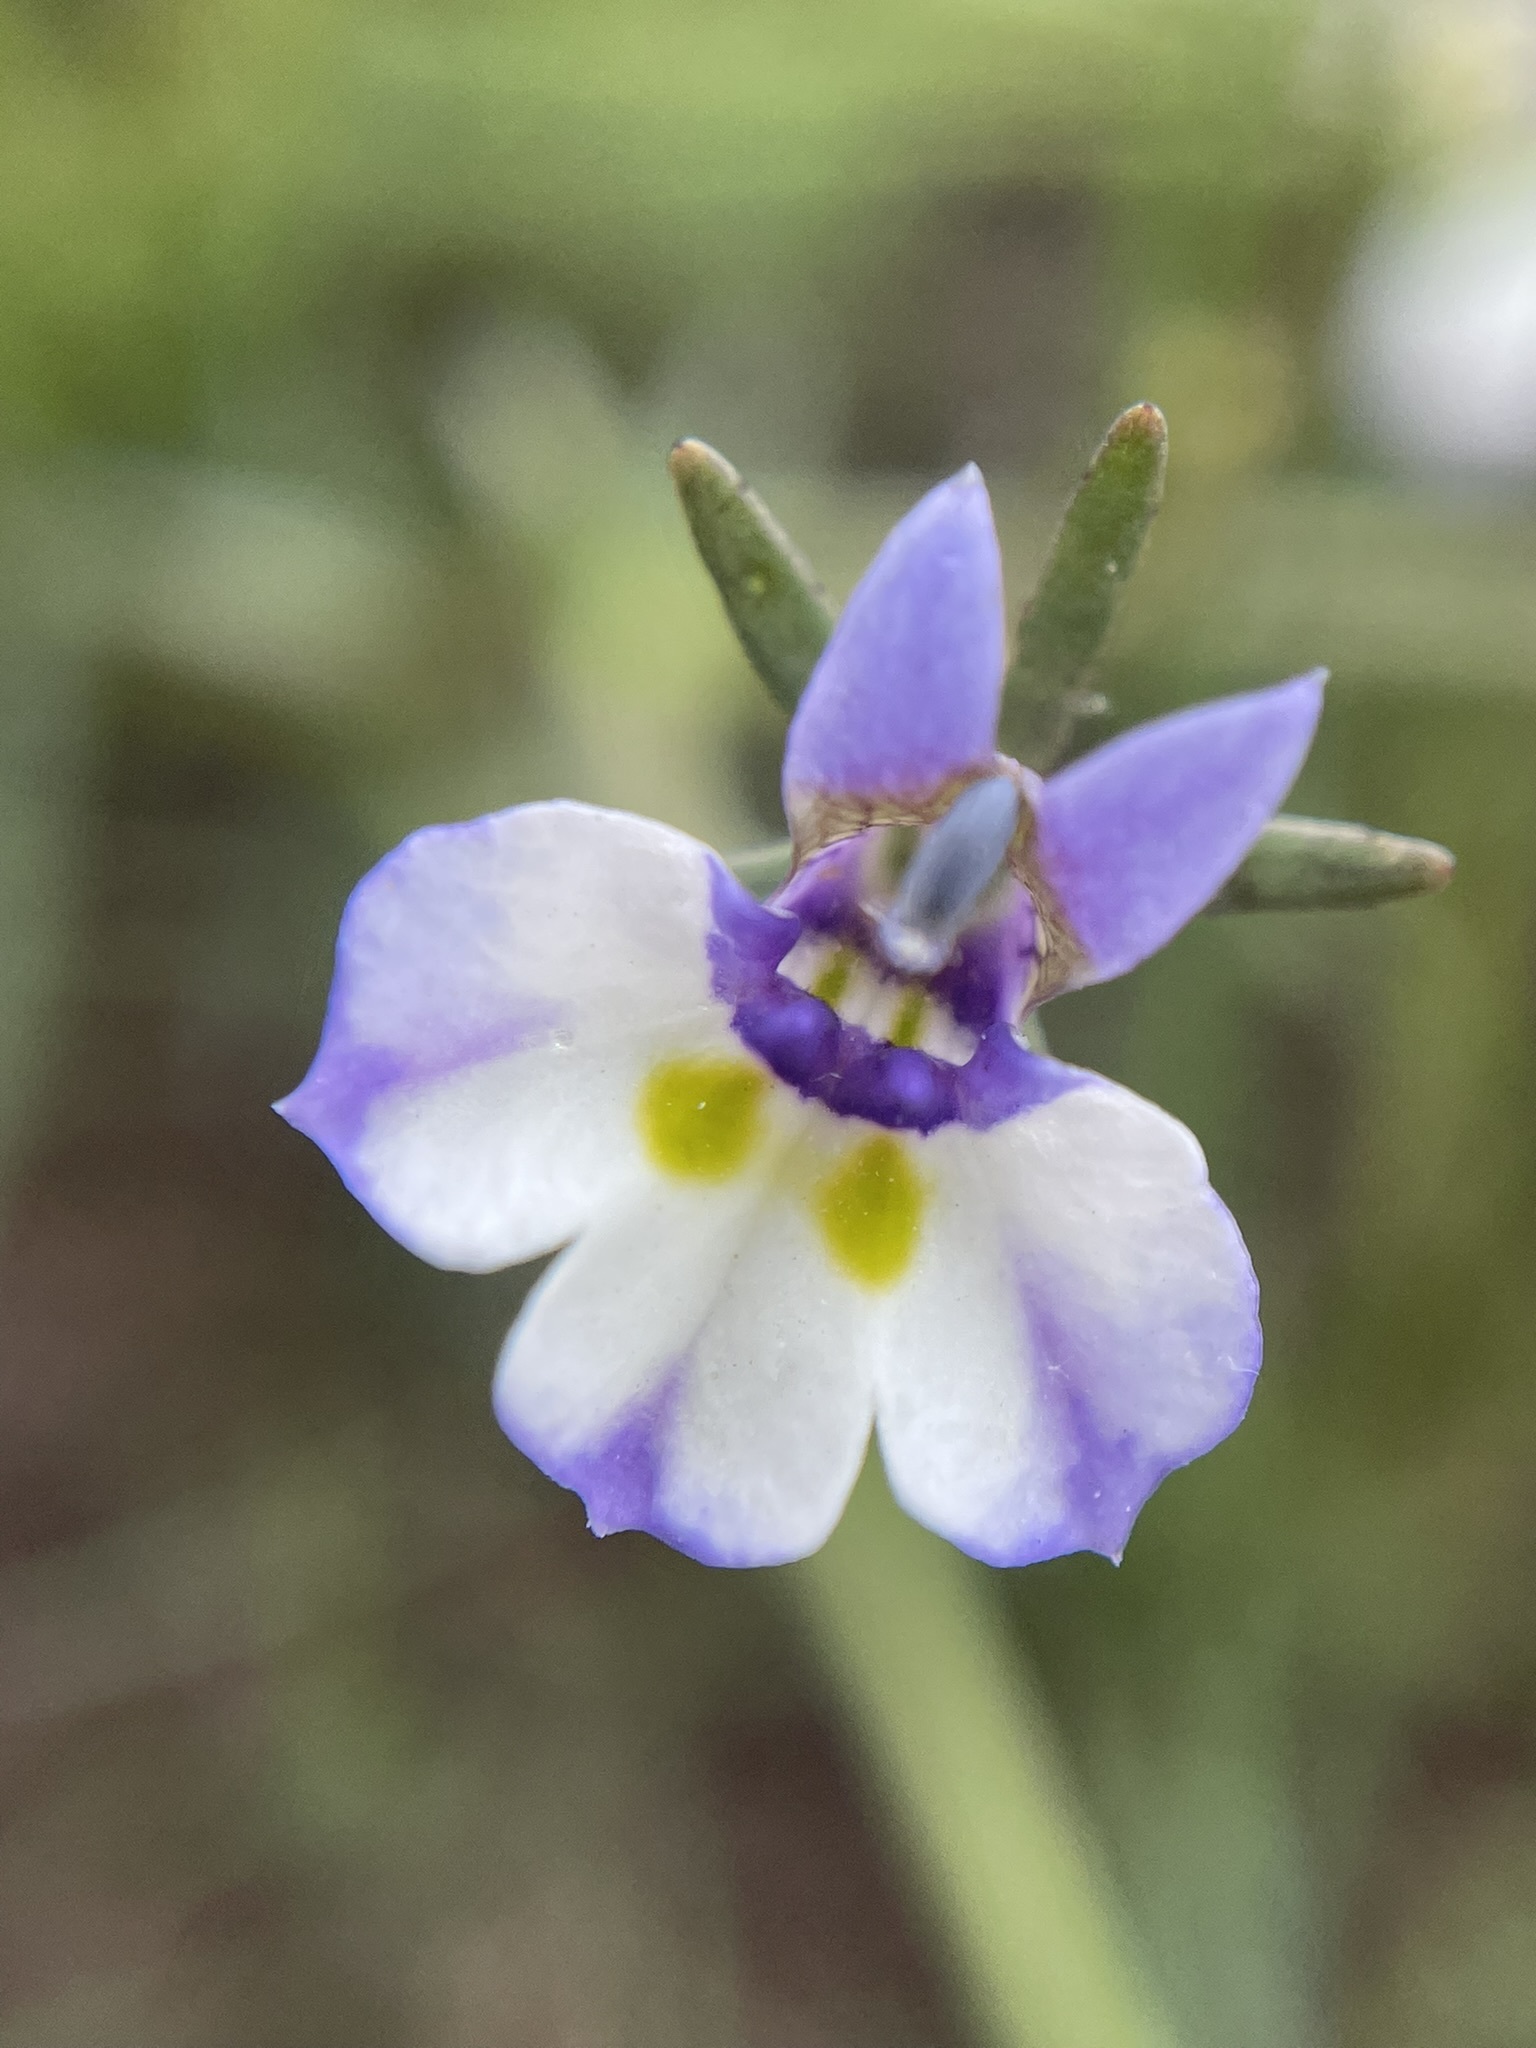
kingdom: Plantae
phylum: Tracheophyta
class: Magnoliopsida
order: Asterales
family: Campanulaceae
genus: Downingia
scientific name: Downingia bicornuta
